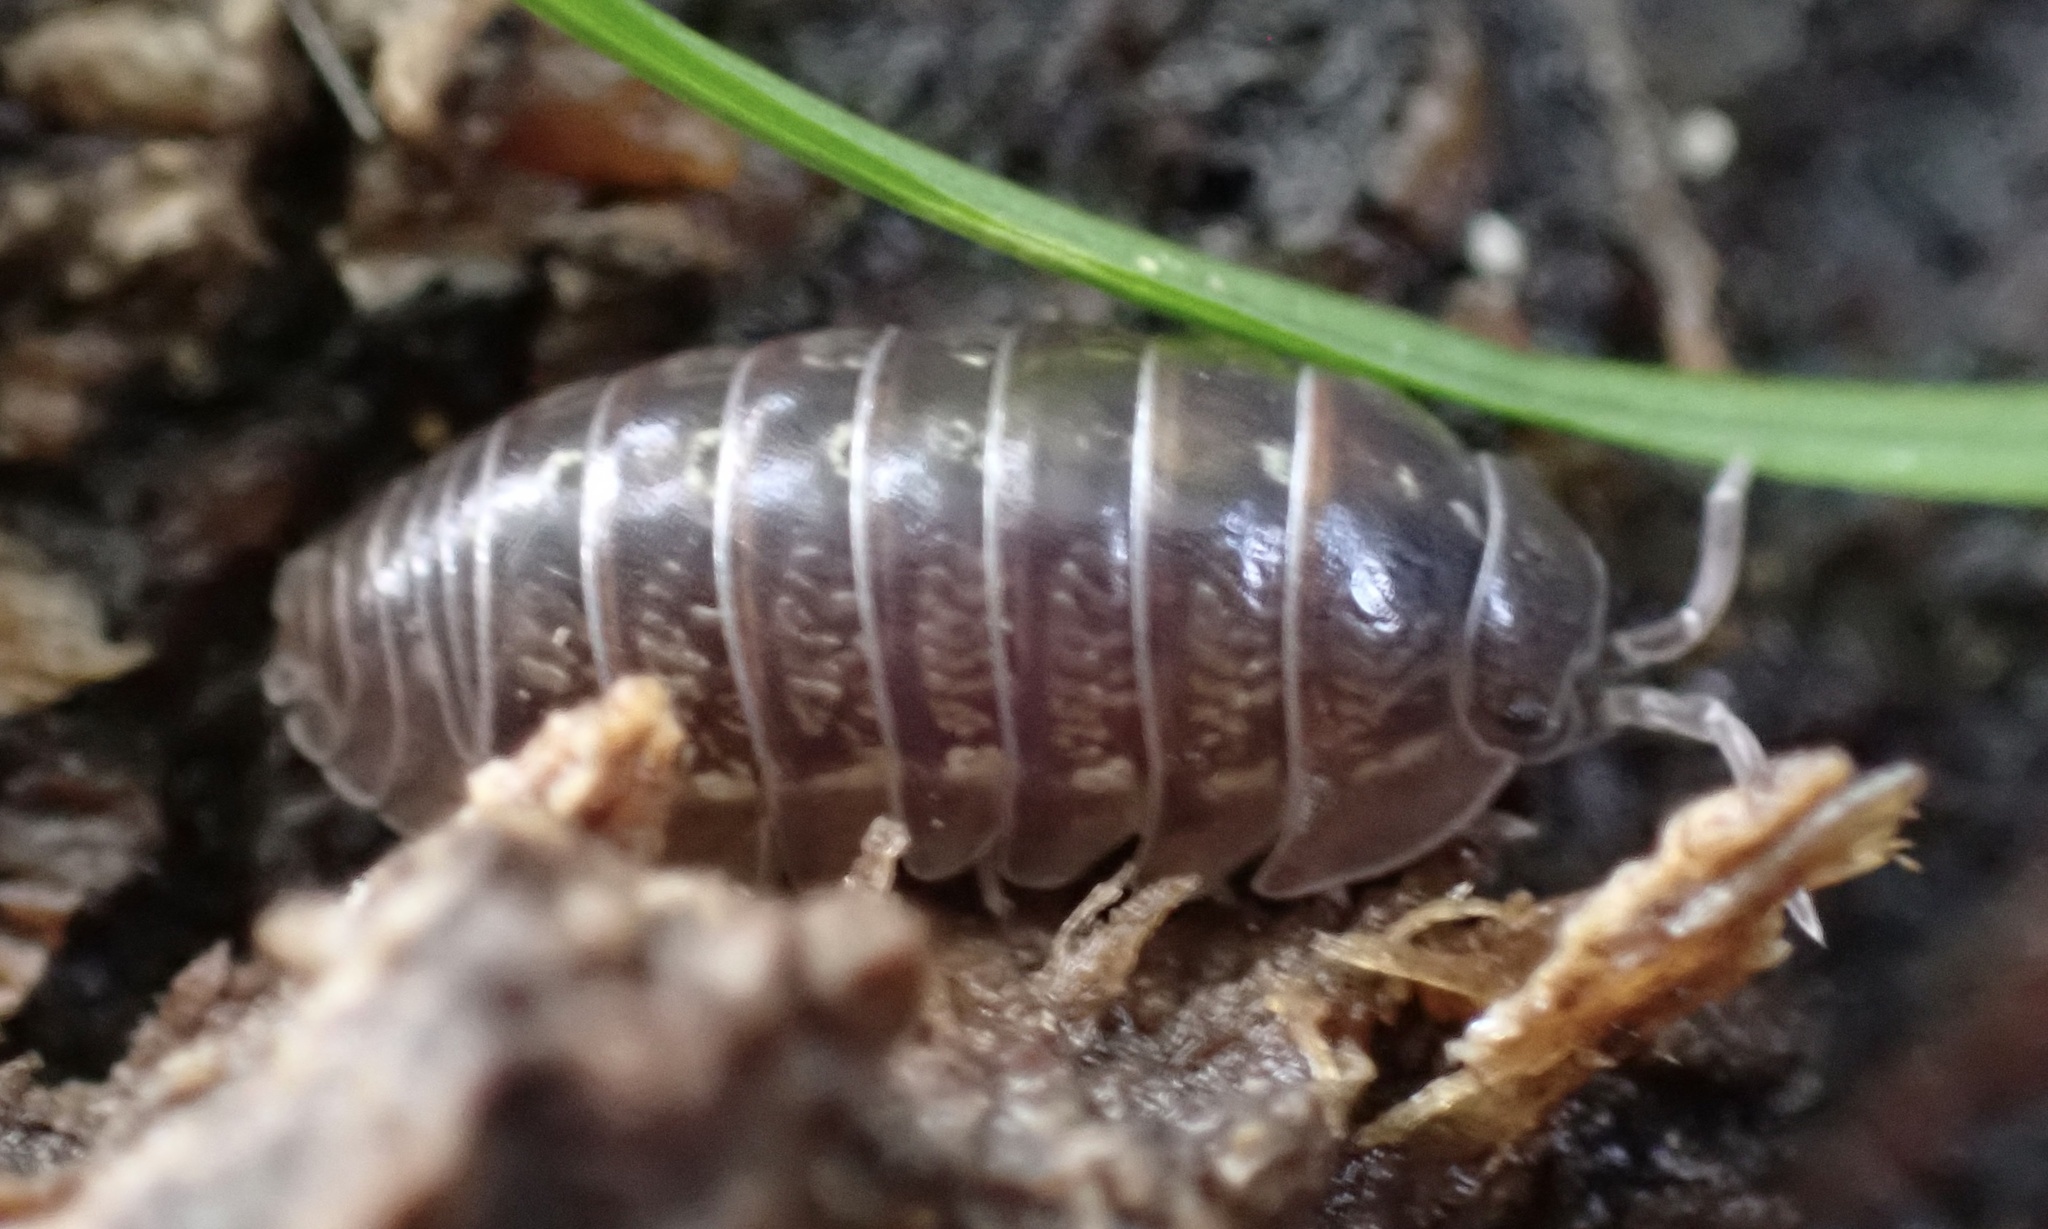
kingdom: Animalia
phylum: Arthropoda
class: Malacostraca
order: Isopoda
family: Armadillidiidae
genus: Armadillidium
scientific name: Armadillidium vulgare
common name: Common pill woodlouse
